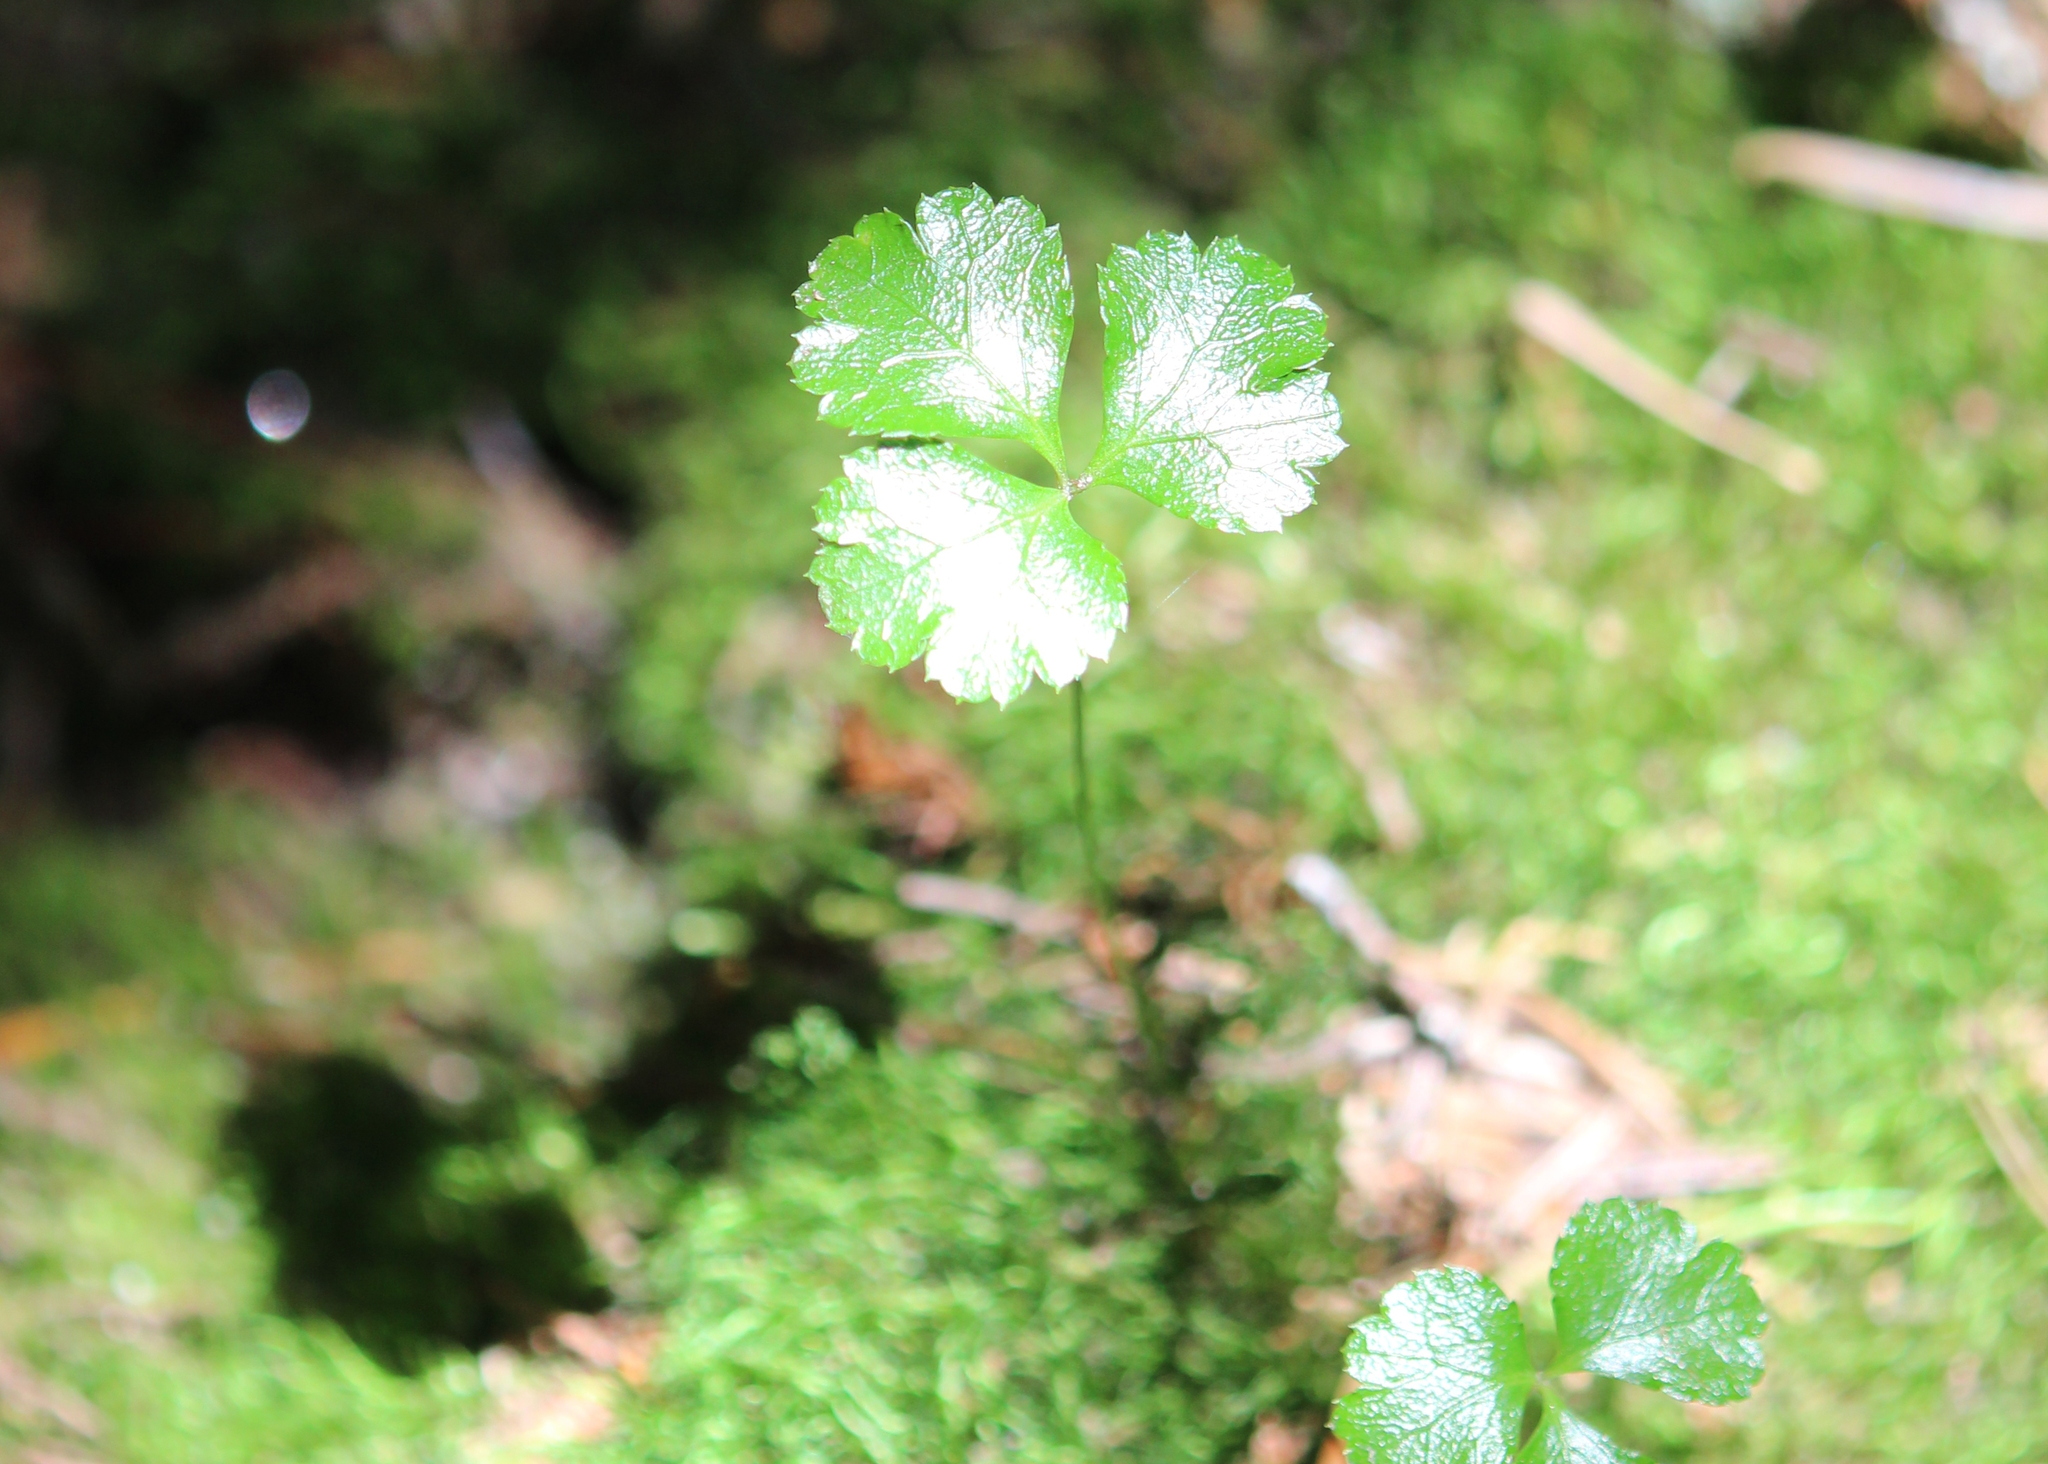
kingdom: Plantae
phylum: Tracheophyta
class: Magnoliopsida
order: Ranunculales
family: Ranunculaceae
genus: Coptis
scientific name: Coptis trifolia
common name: Canker-root
